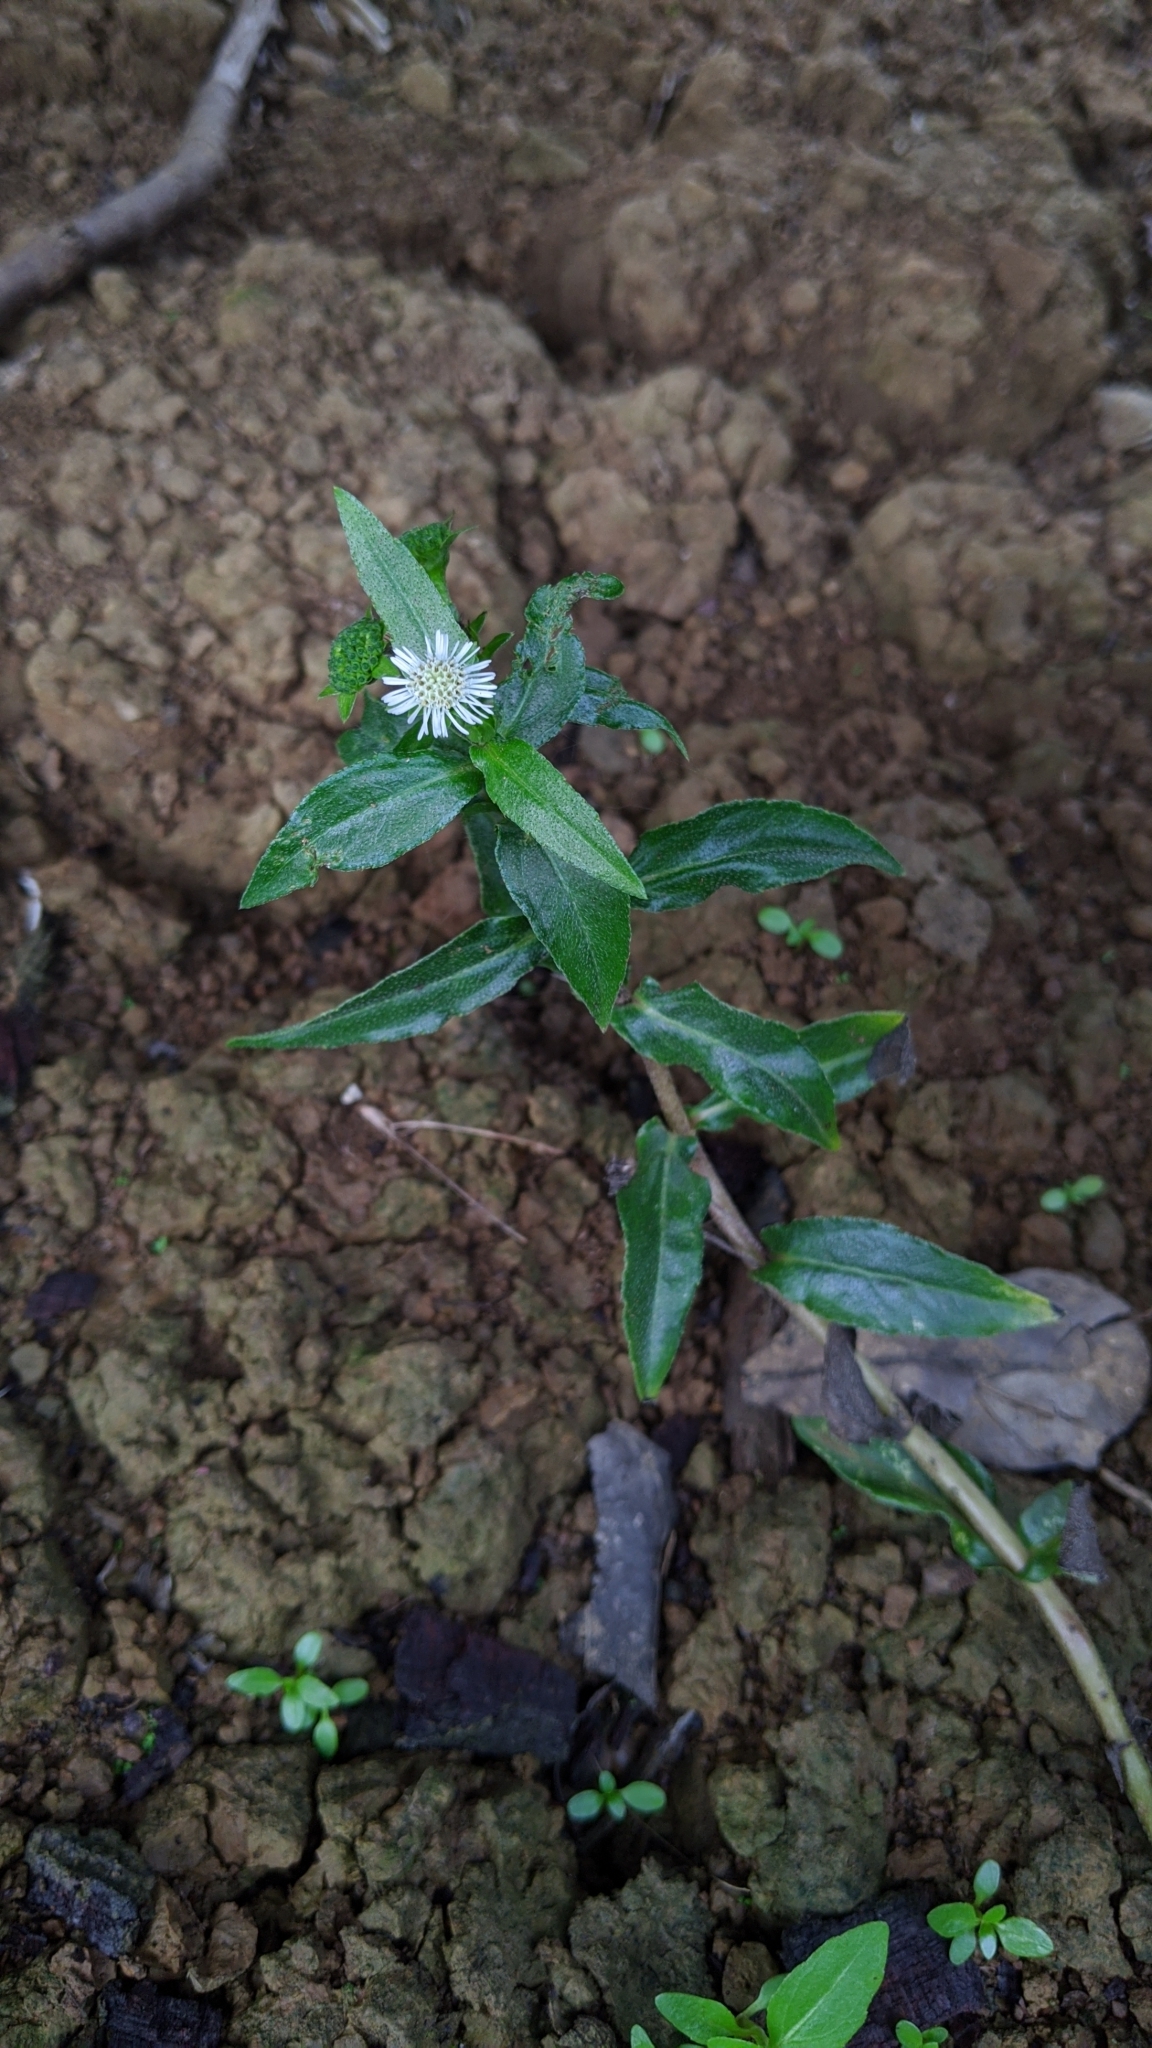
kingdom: Plantae
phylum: Tracheophyta
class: Magnoliopsida
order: Asterales
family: Asteraceae
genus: Eclipta
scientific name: Eclipta prostrata
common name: False daisy
